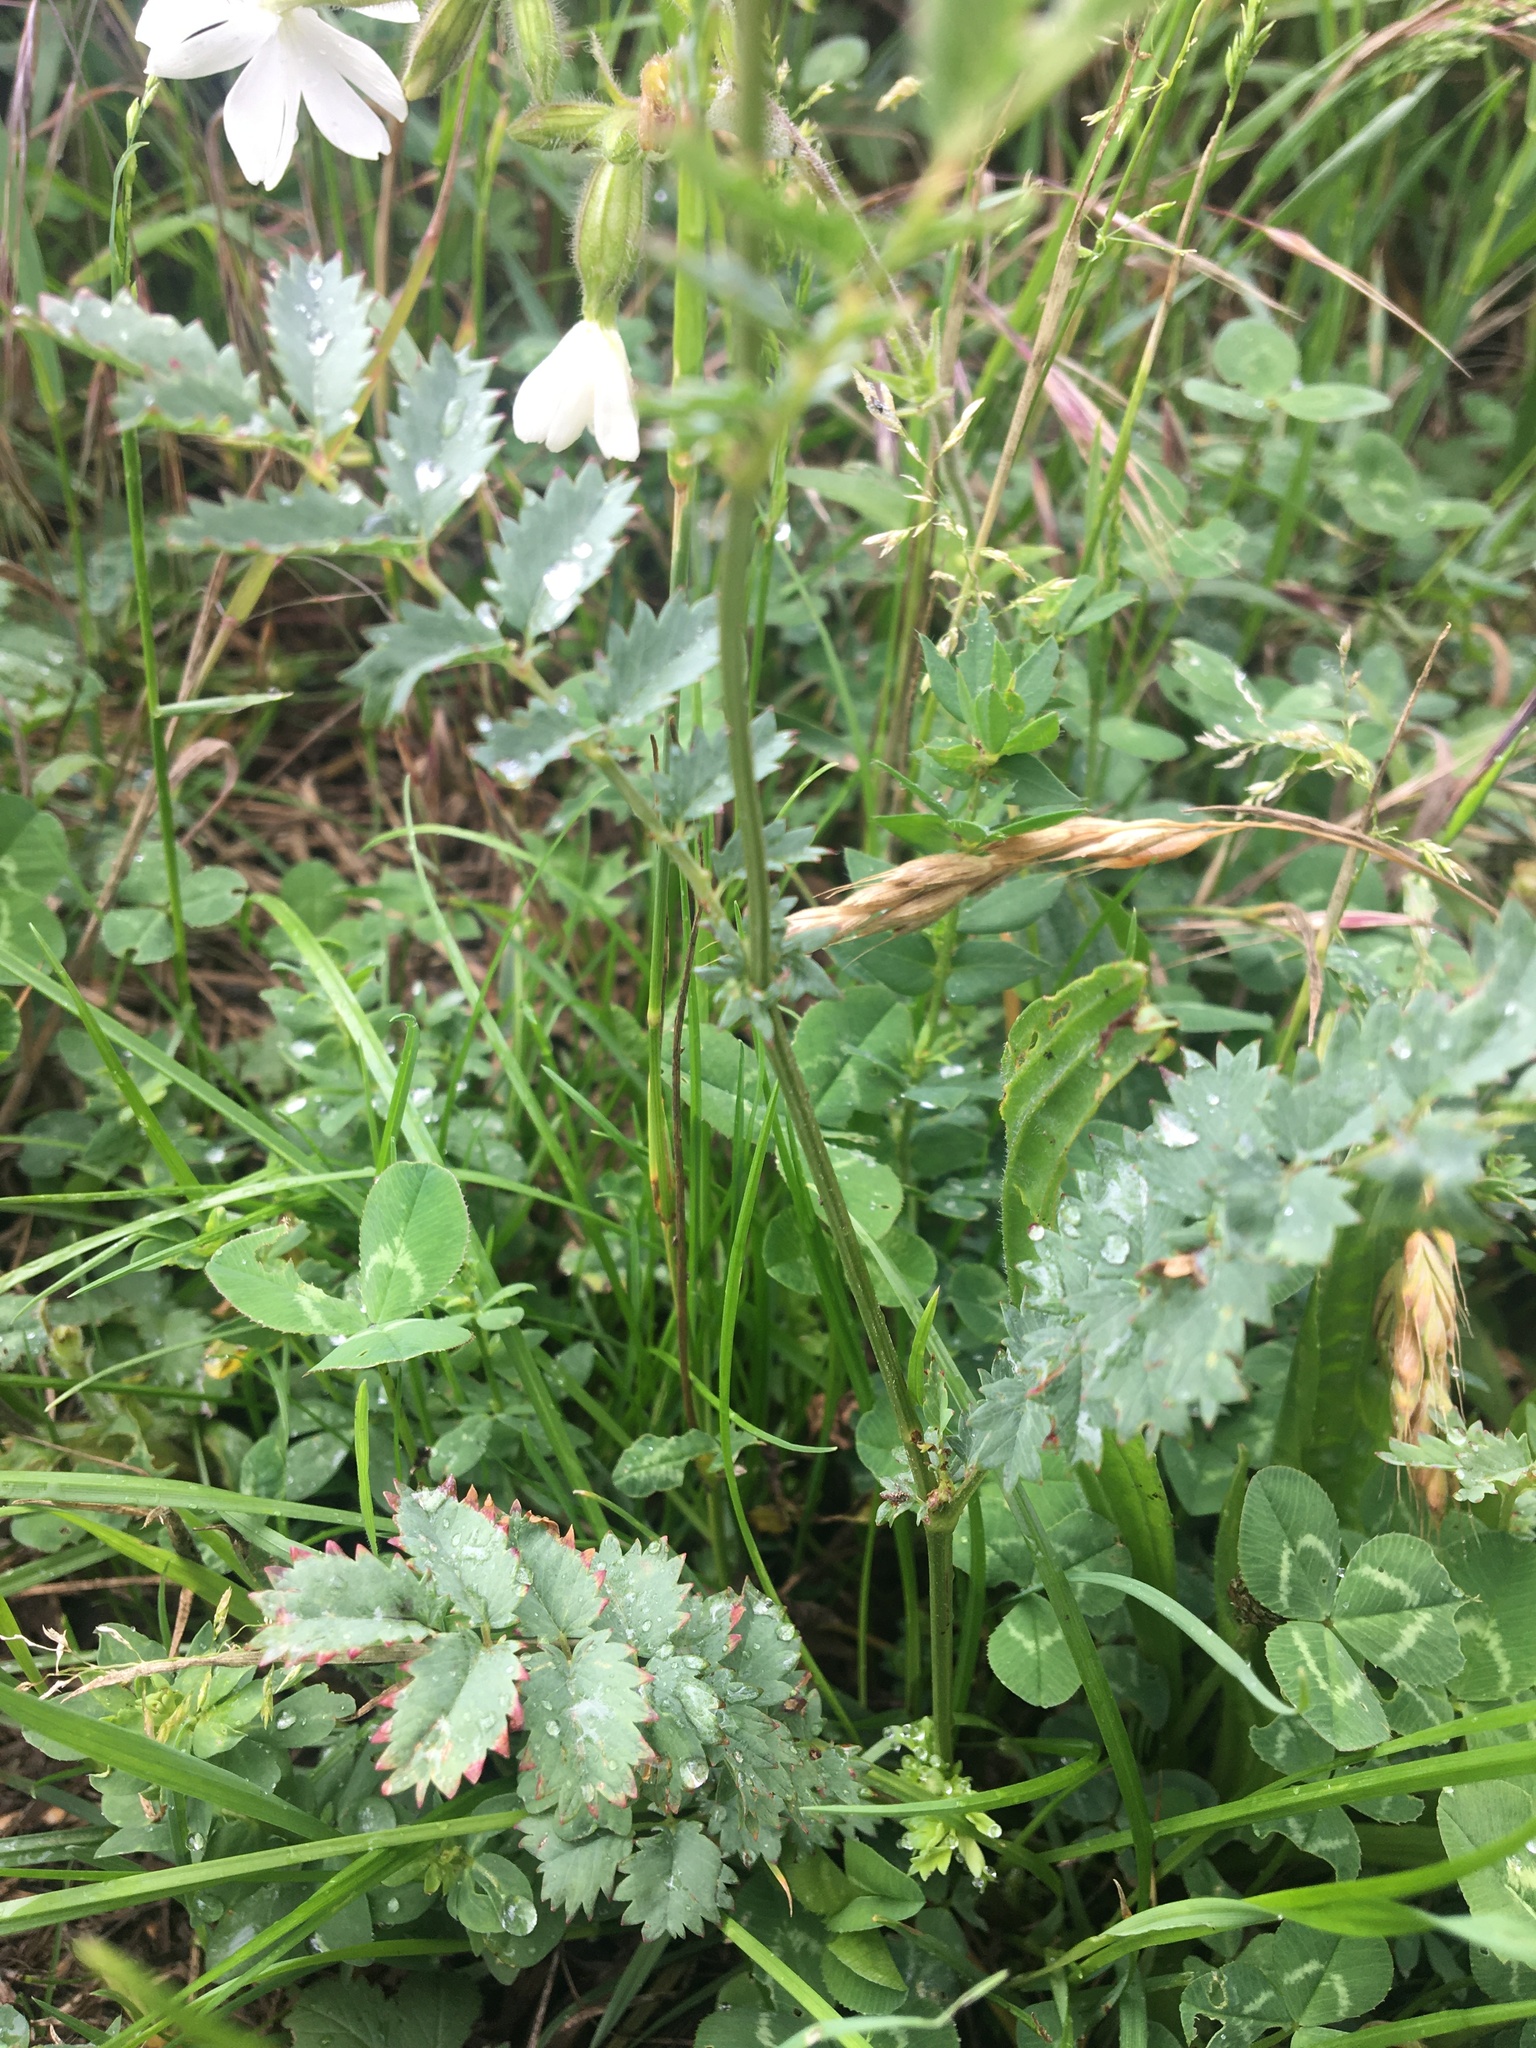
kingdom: Plantae
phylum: Tracheophyta
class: Magnoliopsida
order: Rosales
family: Rosaceae
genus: Poterium
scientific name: Poterium sanguisorba
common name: Salad burnet
